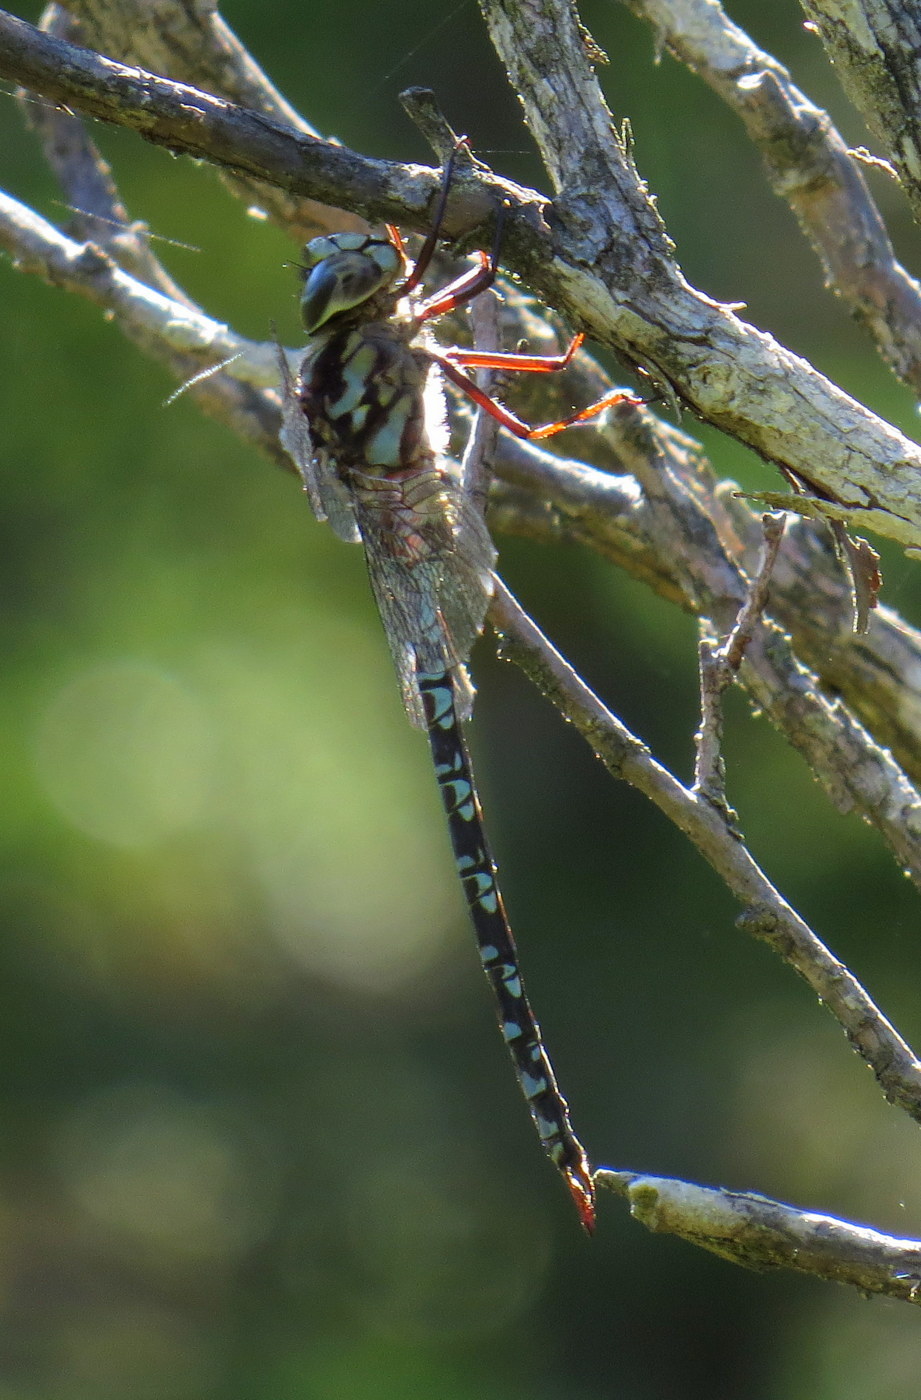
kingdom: Animalia
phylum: Arthropoda
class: Insecta
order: Odonata
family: Aeshnidae
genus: Aeshna
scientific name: Aeshna clepsydra
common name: Mottled darner
